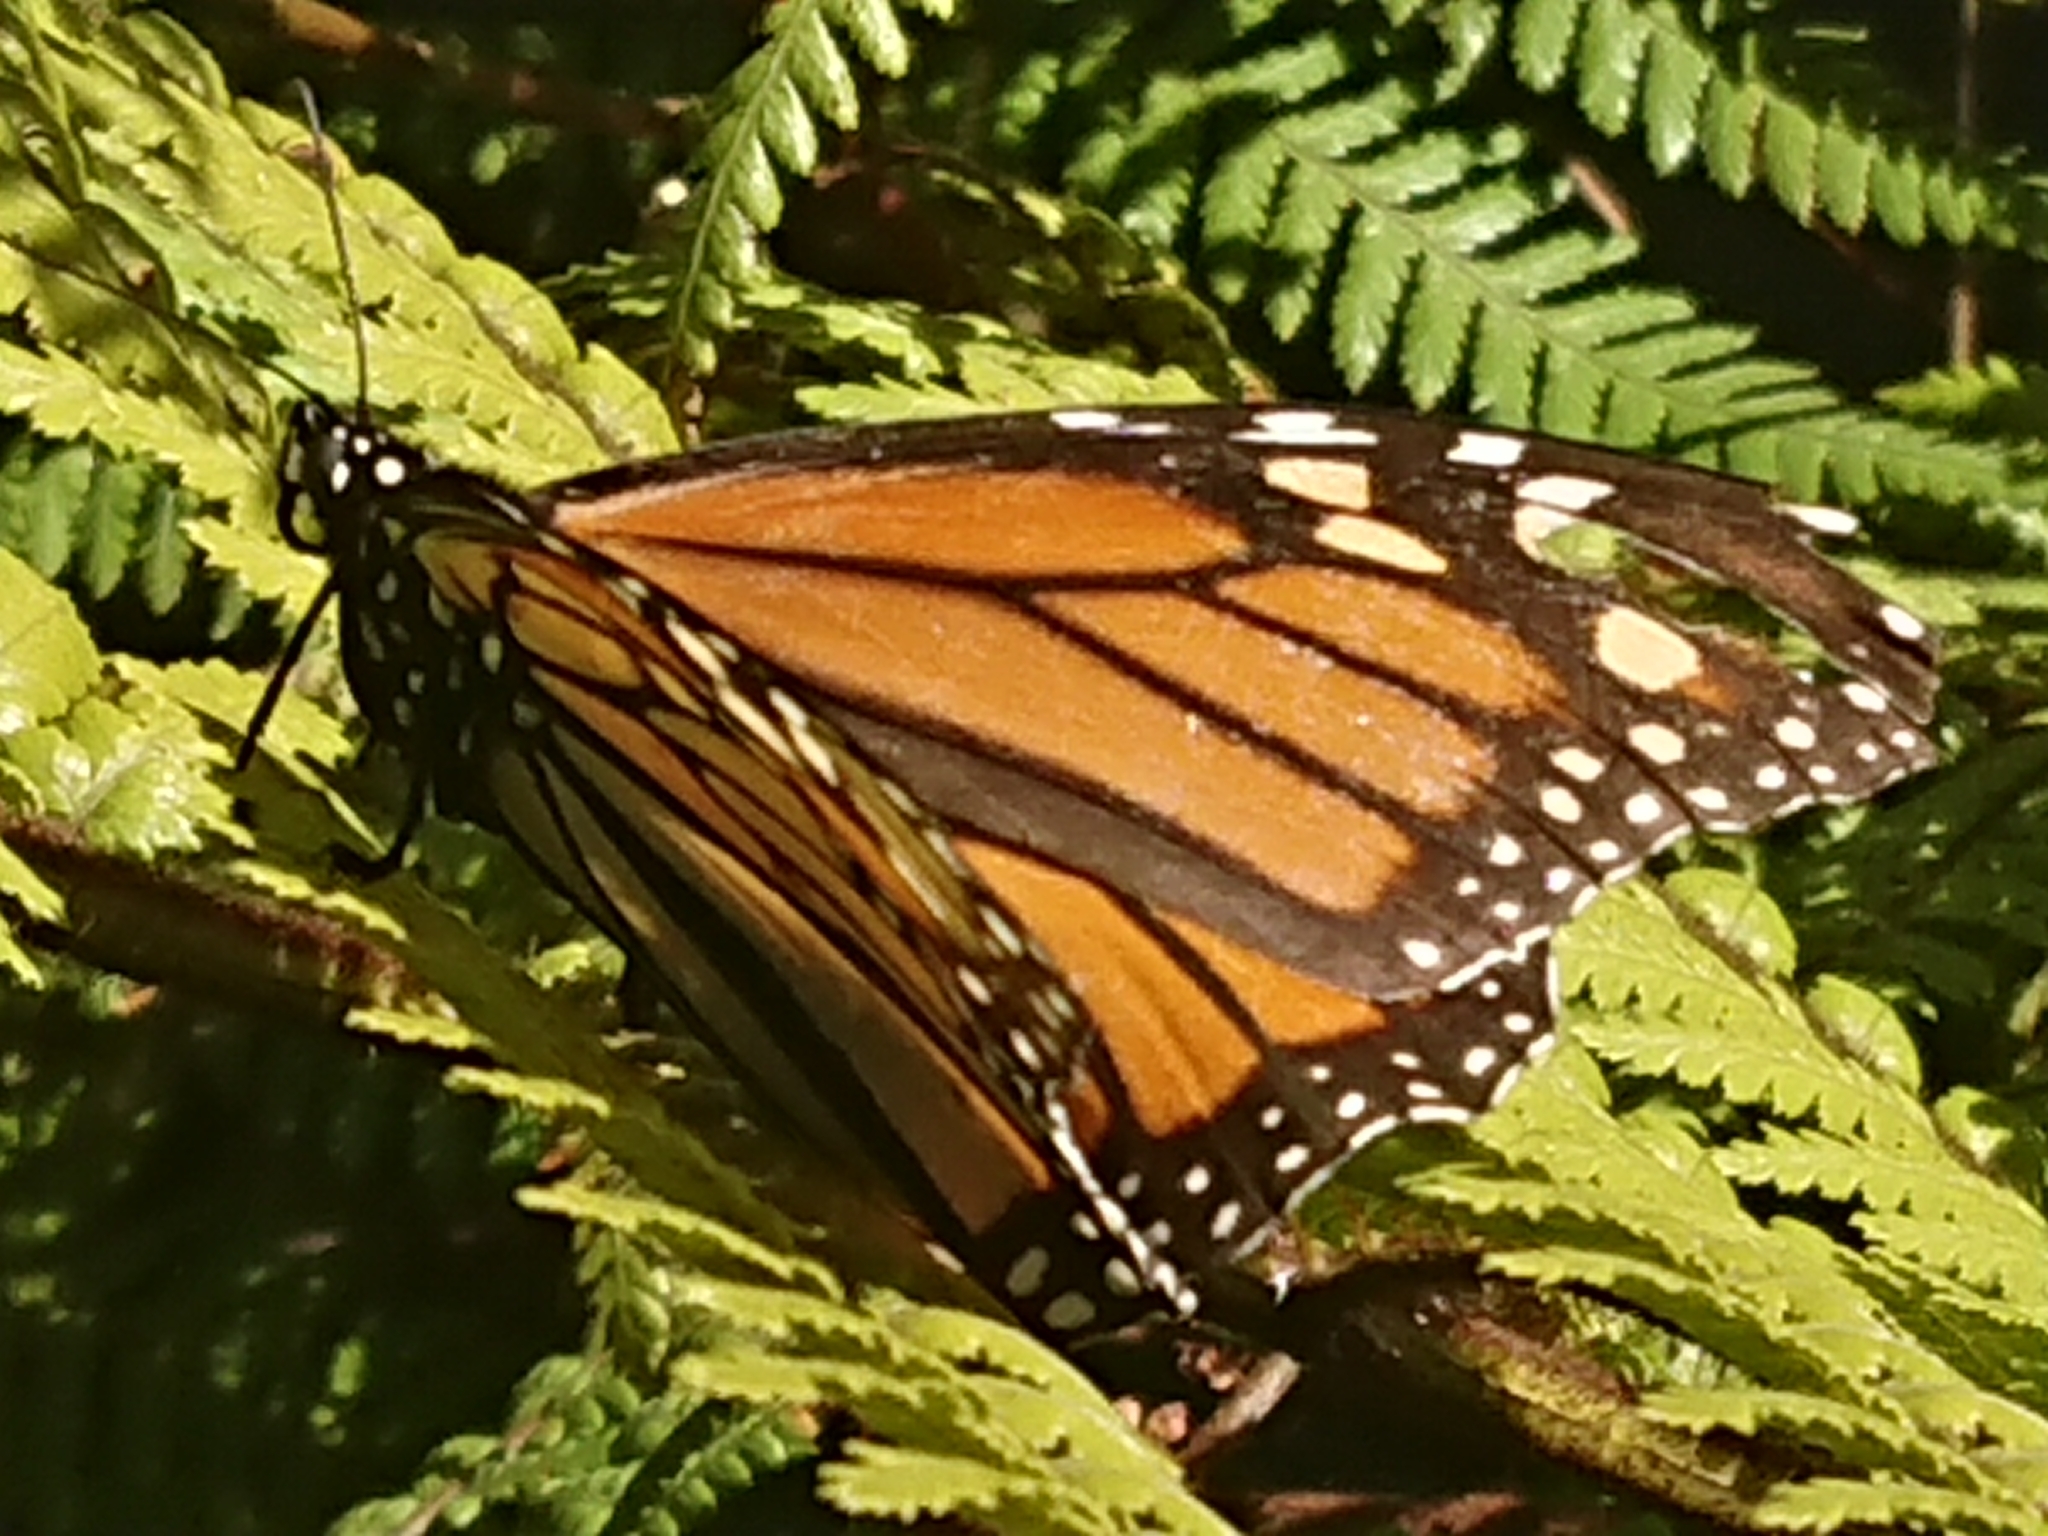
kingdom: Animalia
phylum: Arthropoda
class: Insecta
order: Lepidoptera
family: Nymphalidae
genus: Danaus
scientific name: Danaus plexippus
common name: Monarch
